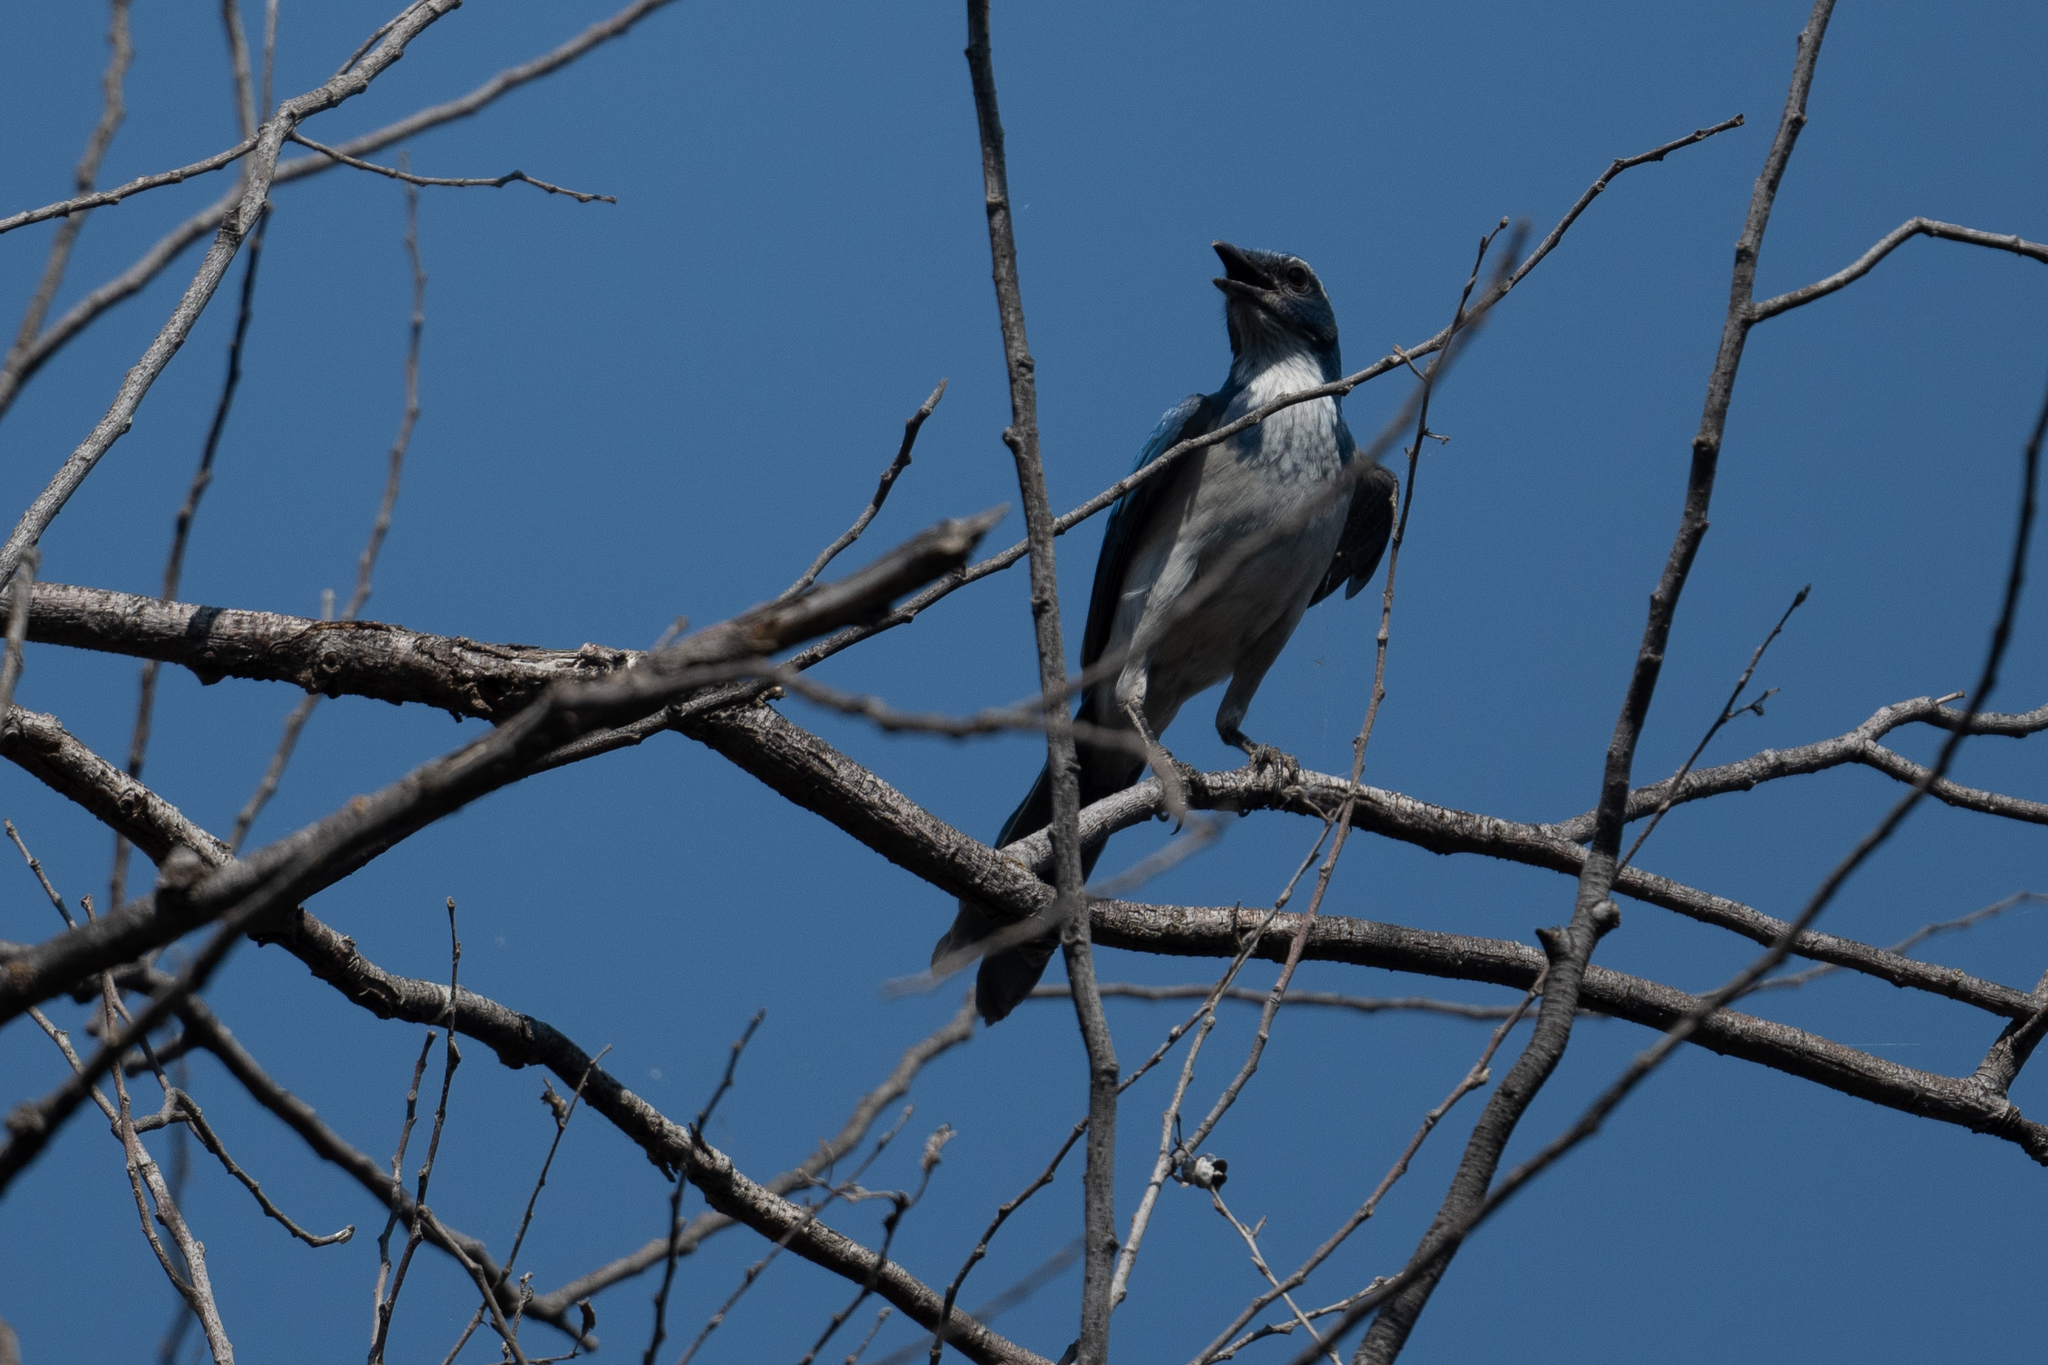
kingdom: Animalia
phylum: Chordata
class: Aves
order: Passeriformes
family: Corvidae
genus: Aphelocoma
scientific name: Aphelocoma californica
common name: California scrub-jay
